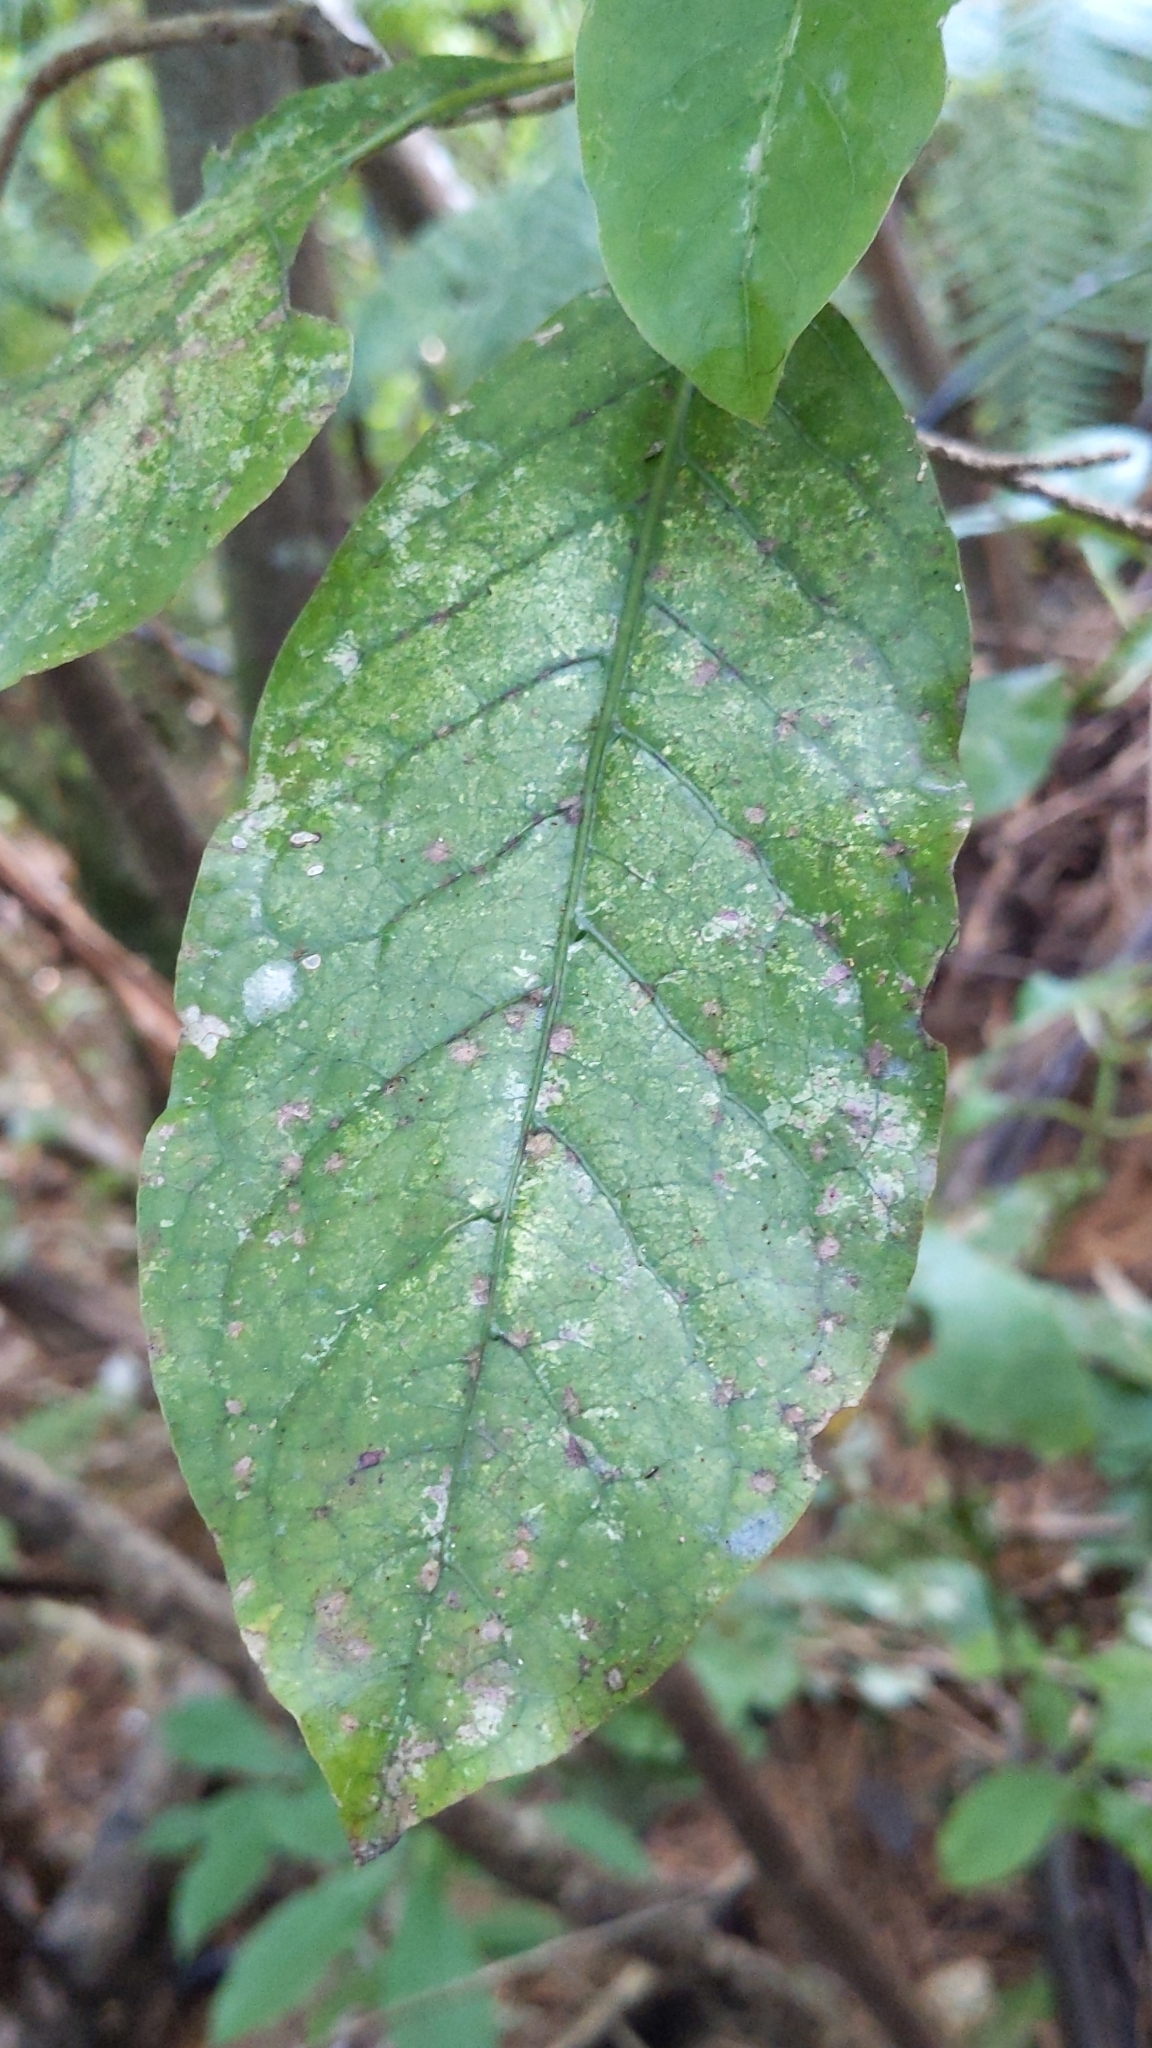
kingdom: Plantae
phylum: Tracheophyta
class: Magnoliopsida
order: Gentianales
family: Rubiaceae
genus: Coprosma
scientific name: Coprosma autumnalis
